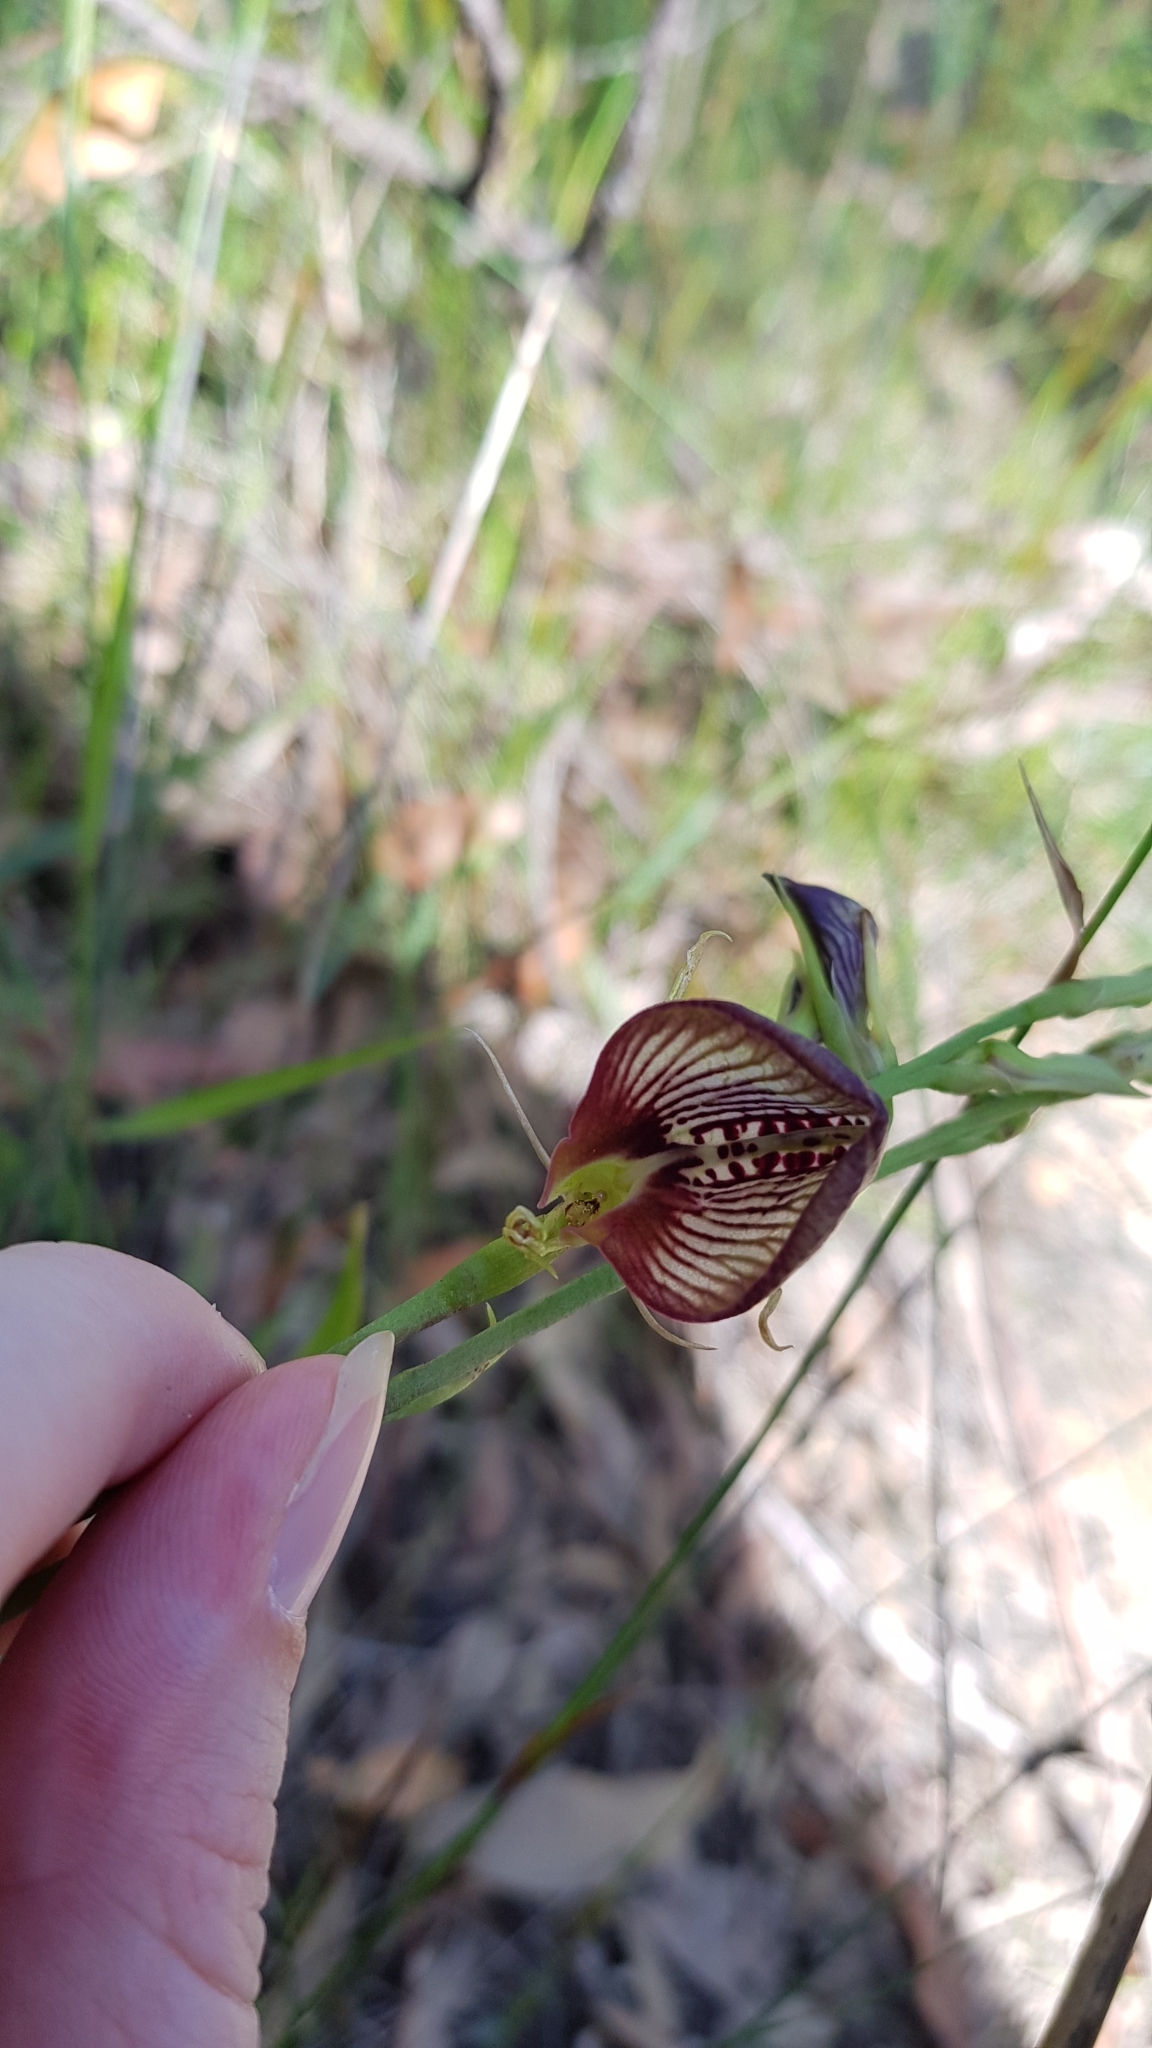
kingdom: Plantae
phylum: Tracheophyta
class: Liliopsida
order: Asparagales
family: Orchidaceae
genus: Cryptostylis
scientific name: Cryptostylis erecta
